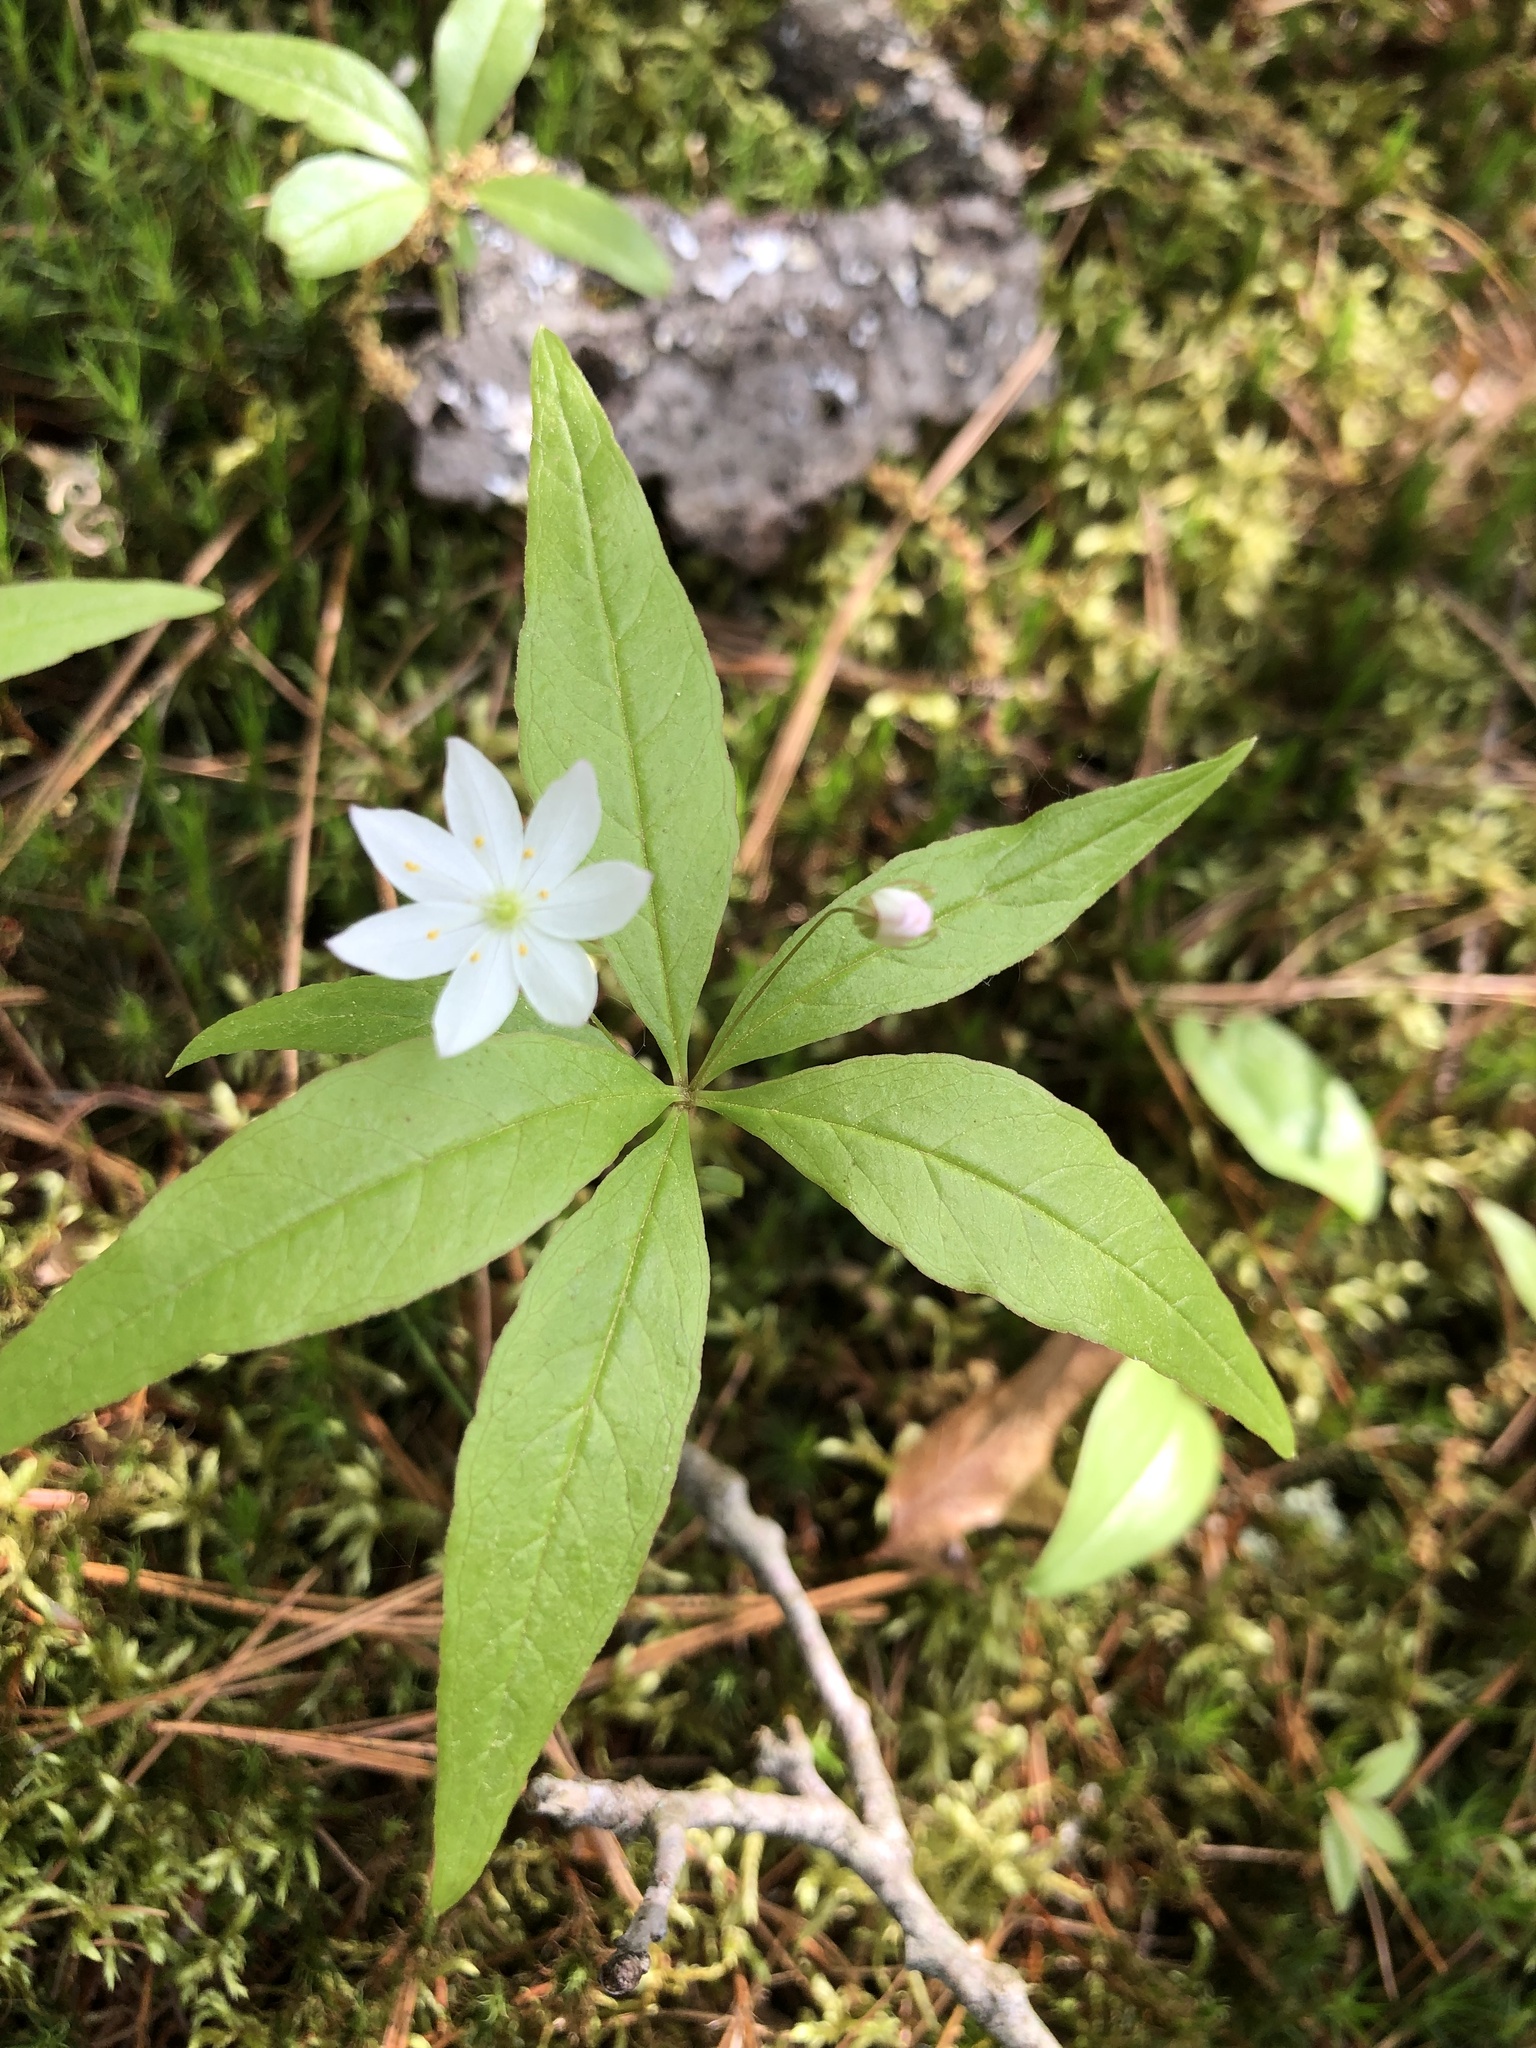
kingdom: Plantae
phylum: Tracheophyta
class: Magnoliopsida
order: Ericales
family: Primulaceae
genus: Lysimachia
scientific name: Lysimachia borealis
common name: American starflower
